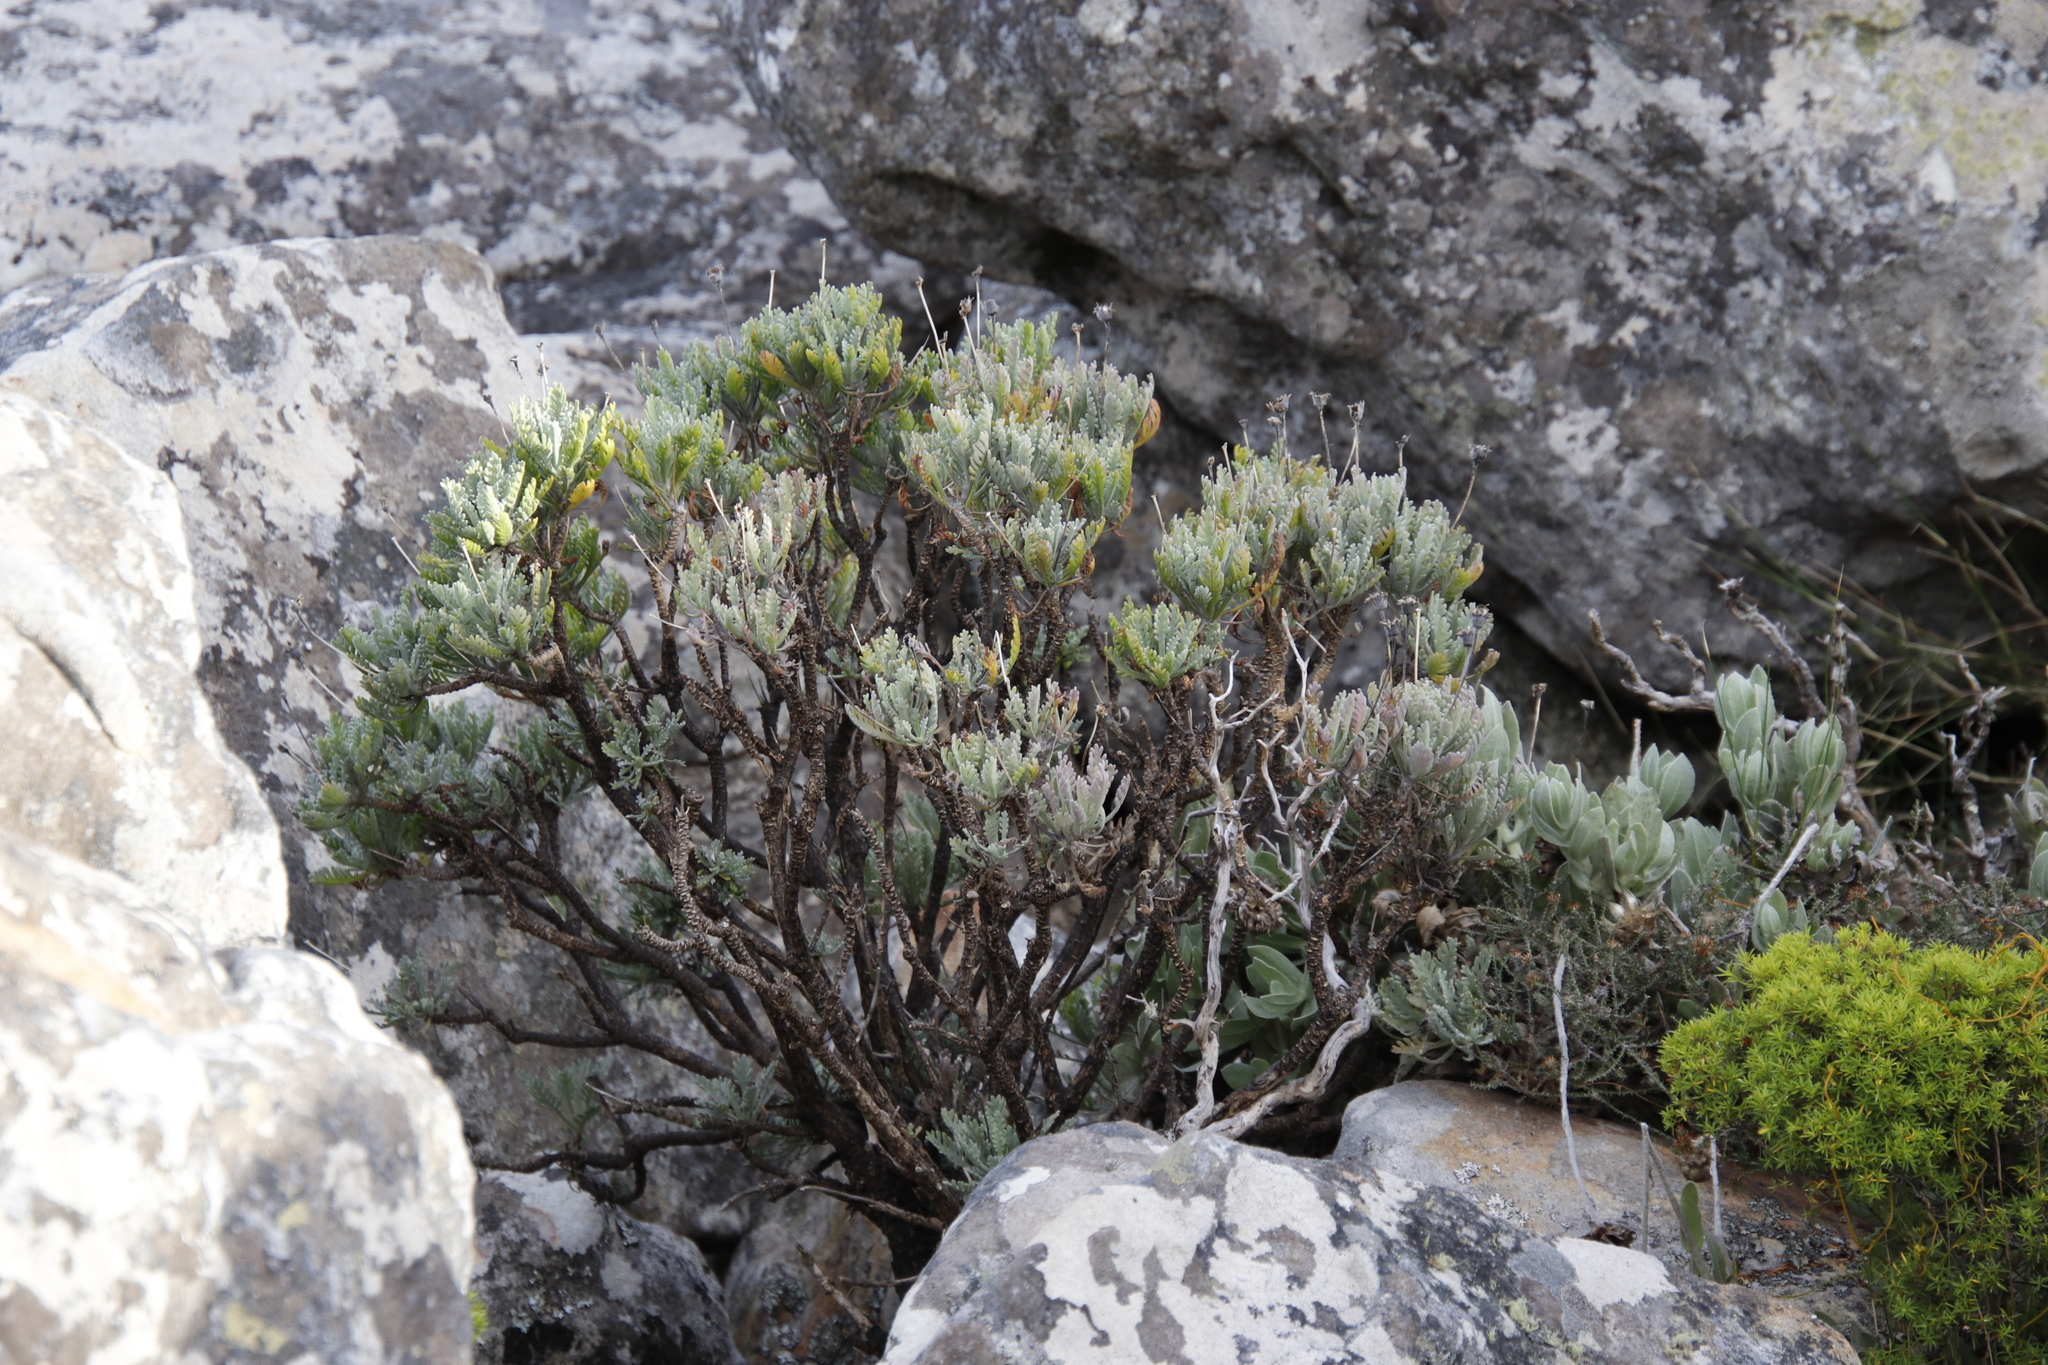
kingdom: Plantae
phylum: Tracheophyta
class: Magnoliopsida
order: Asterales
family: Asteraceae
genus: Euryops
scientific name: Euryops pectinatus
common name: Gray-leaf euryops
